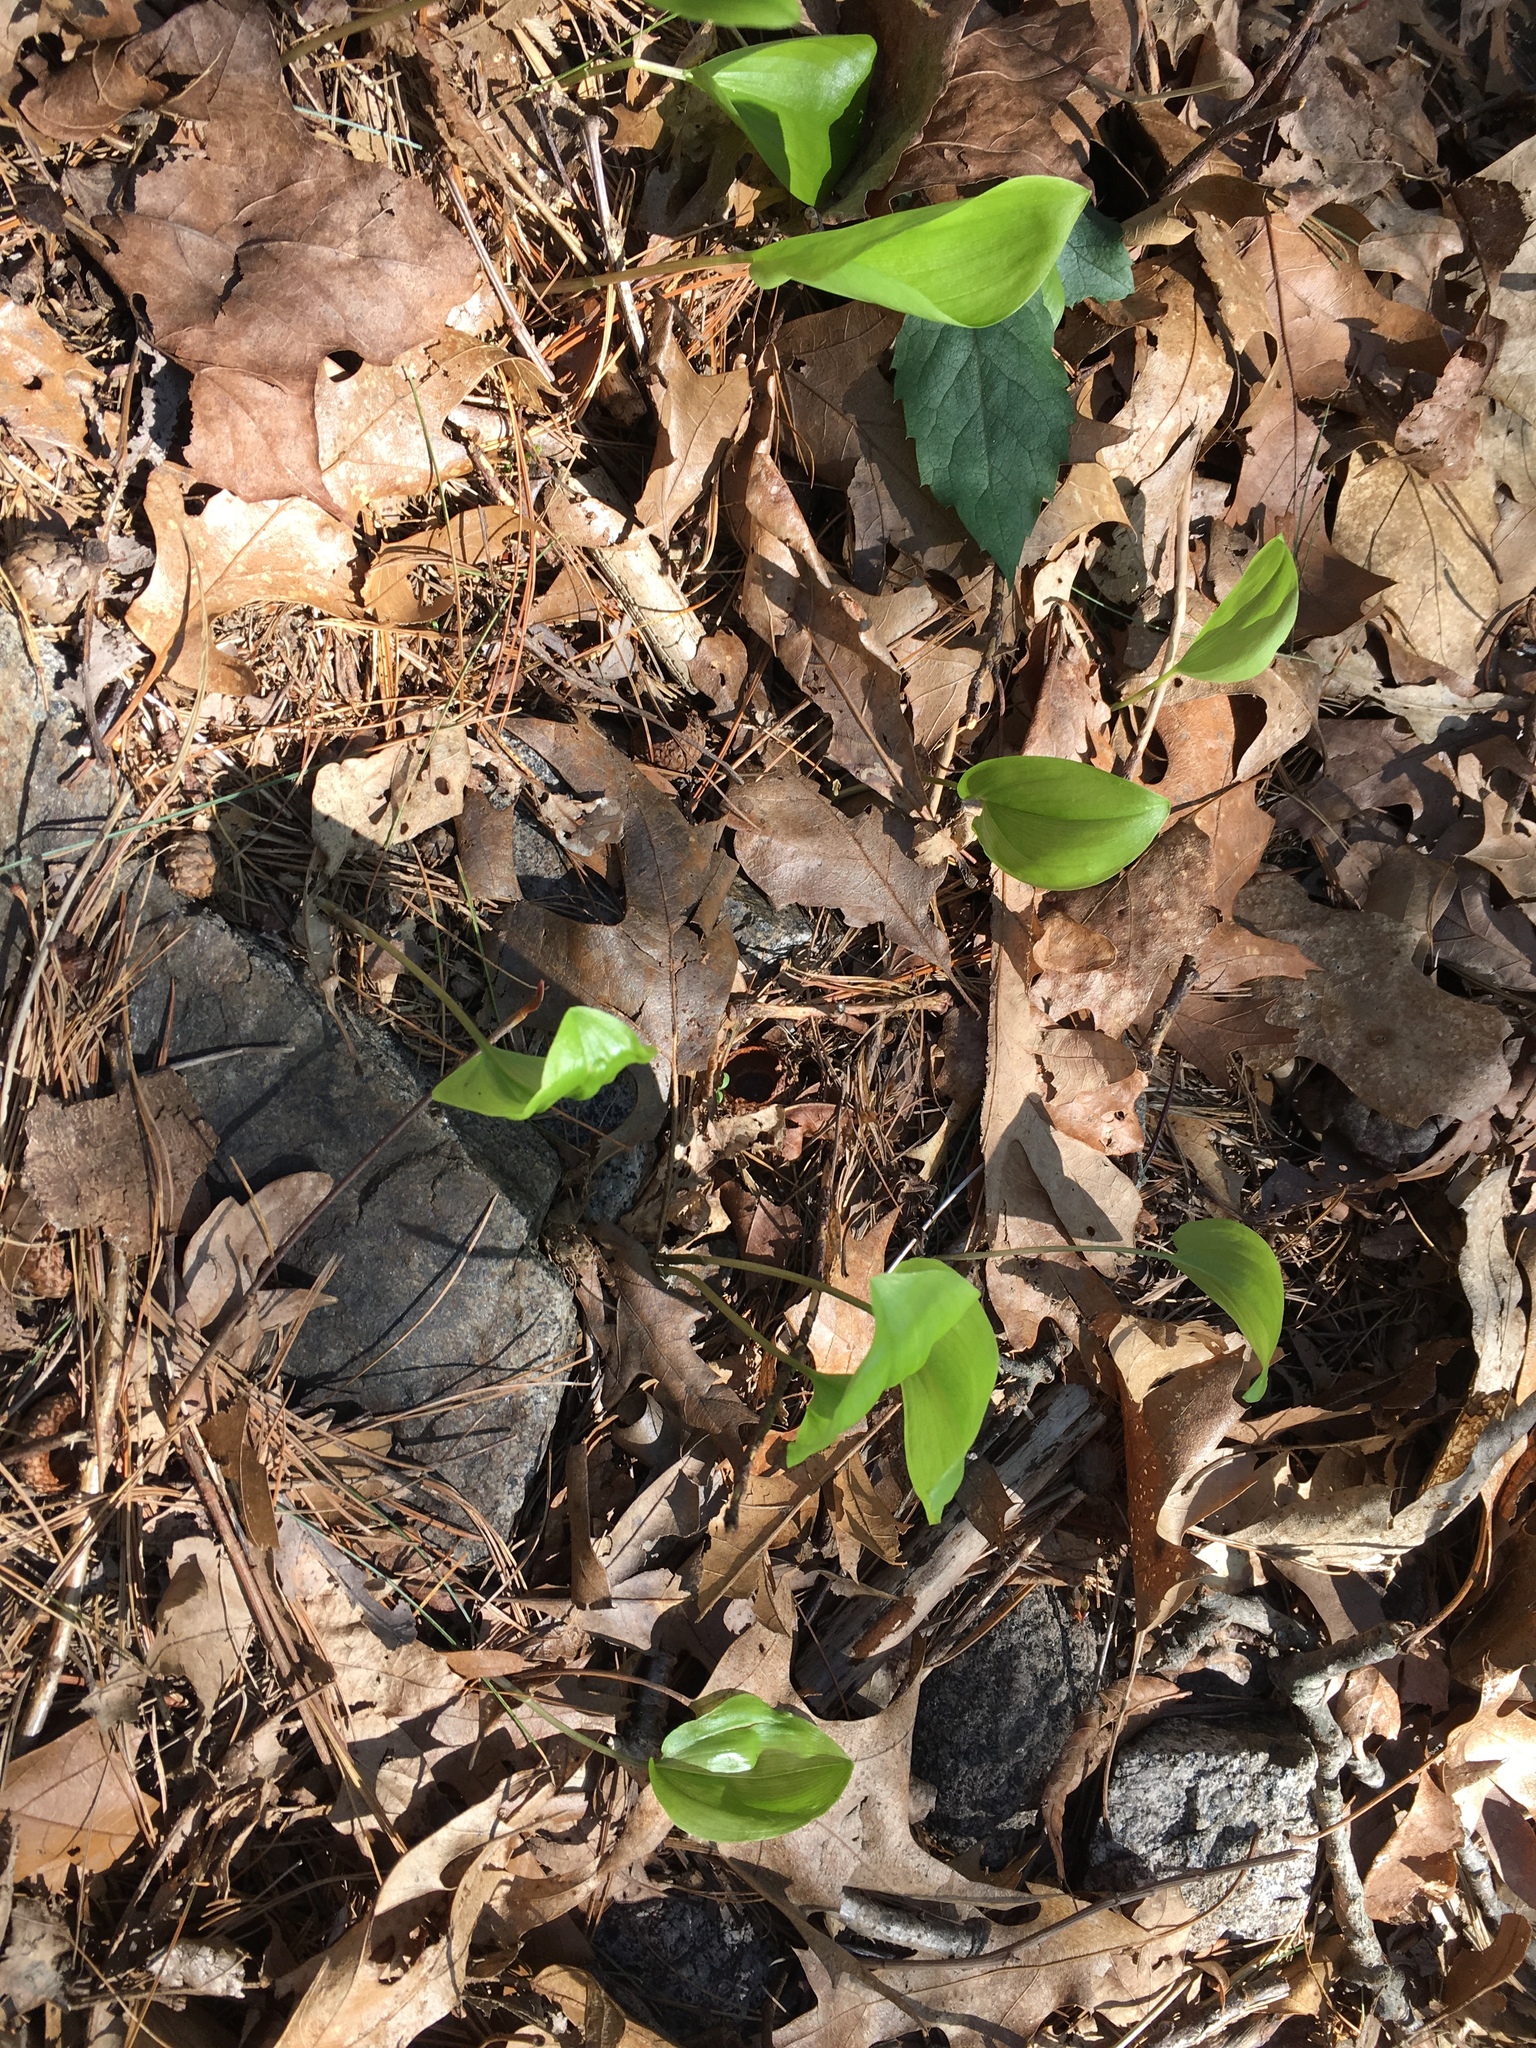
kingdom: Plantae
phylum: Tracheophyta
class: Liliopsida
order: Asparagales
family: Asparagaceae
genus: Maianthemum
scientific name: Maianthemum canadense
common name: False lily-of-the-valley
